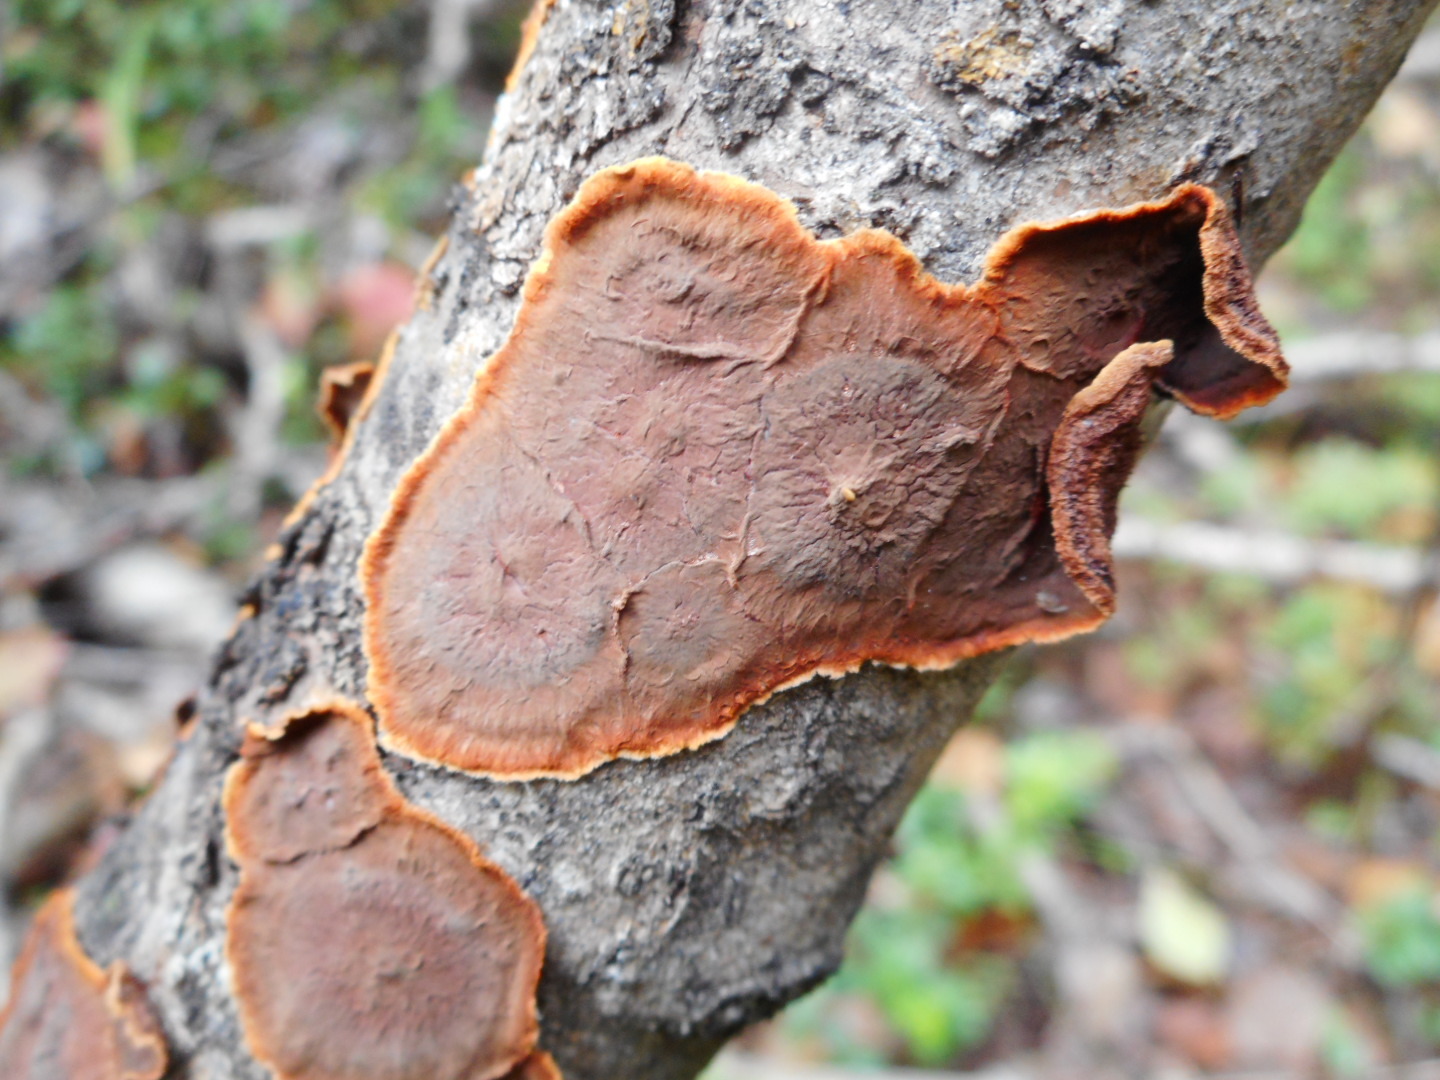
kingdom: Fungi
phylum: Basidiomycota
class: Agaricomycetes
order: Corticiales
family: Punctulariaceae
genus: Punctularia
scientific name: Punctularia strigosozonata
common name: White-rot fungus
